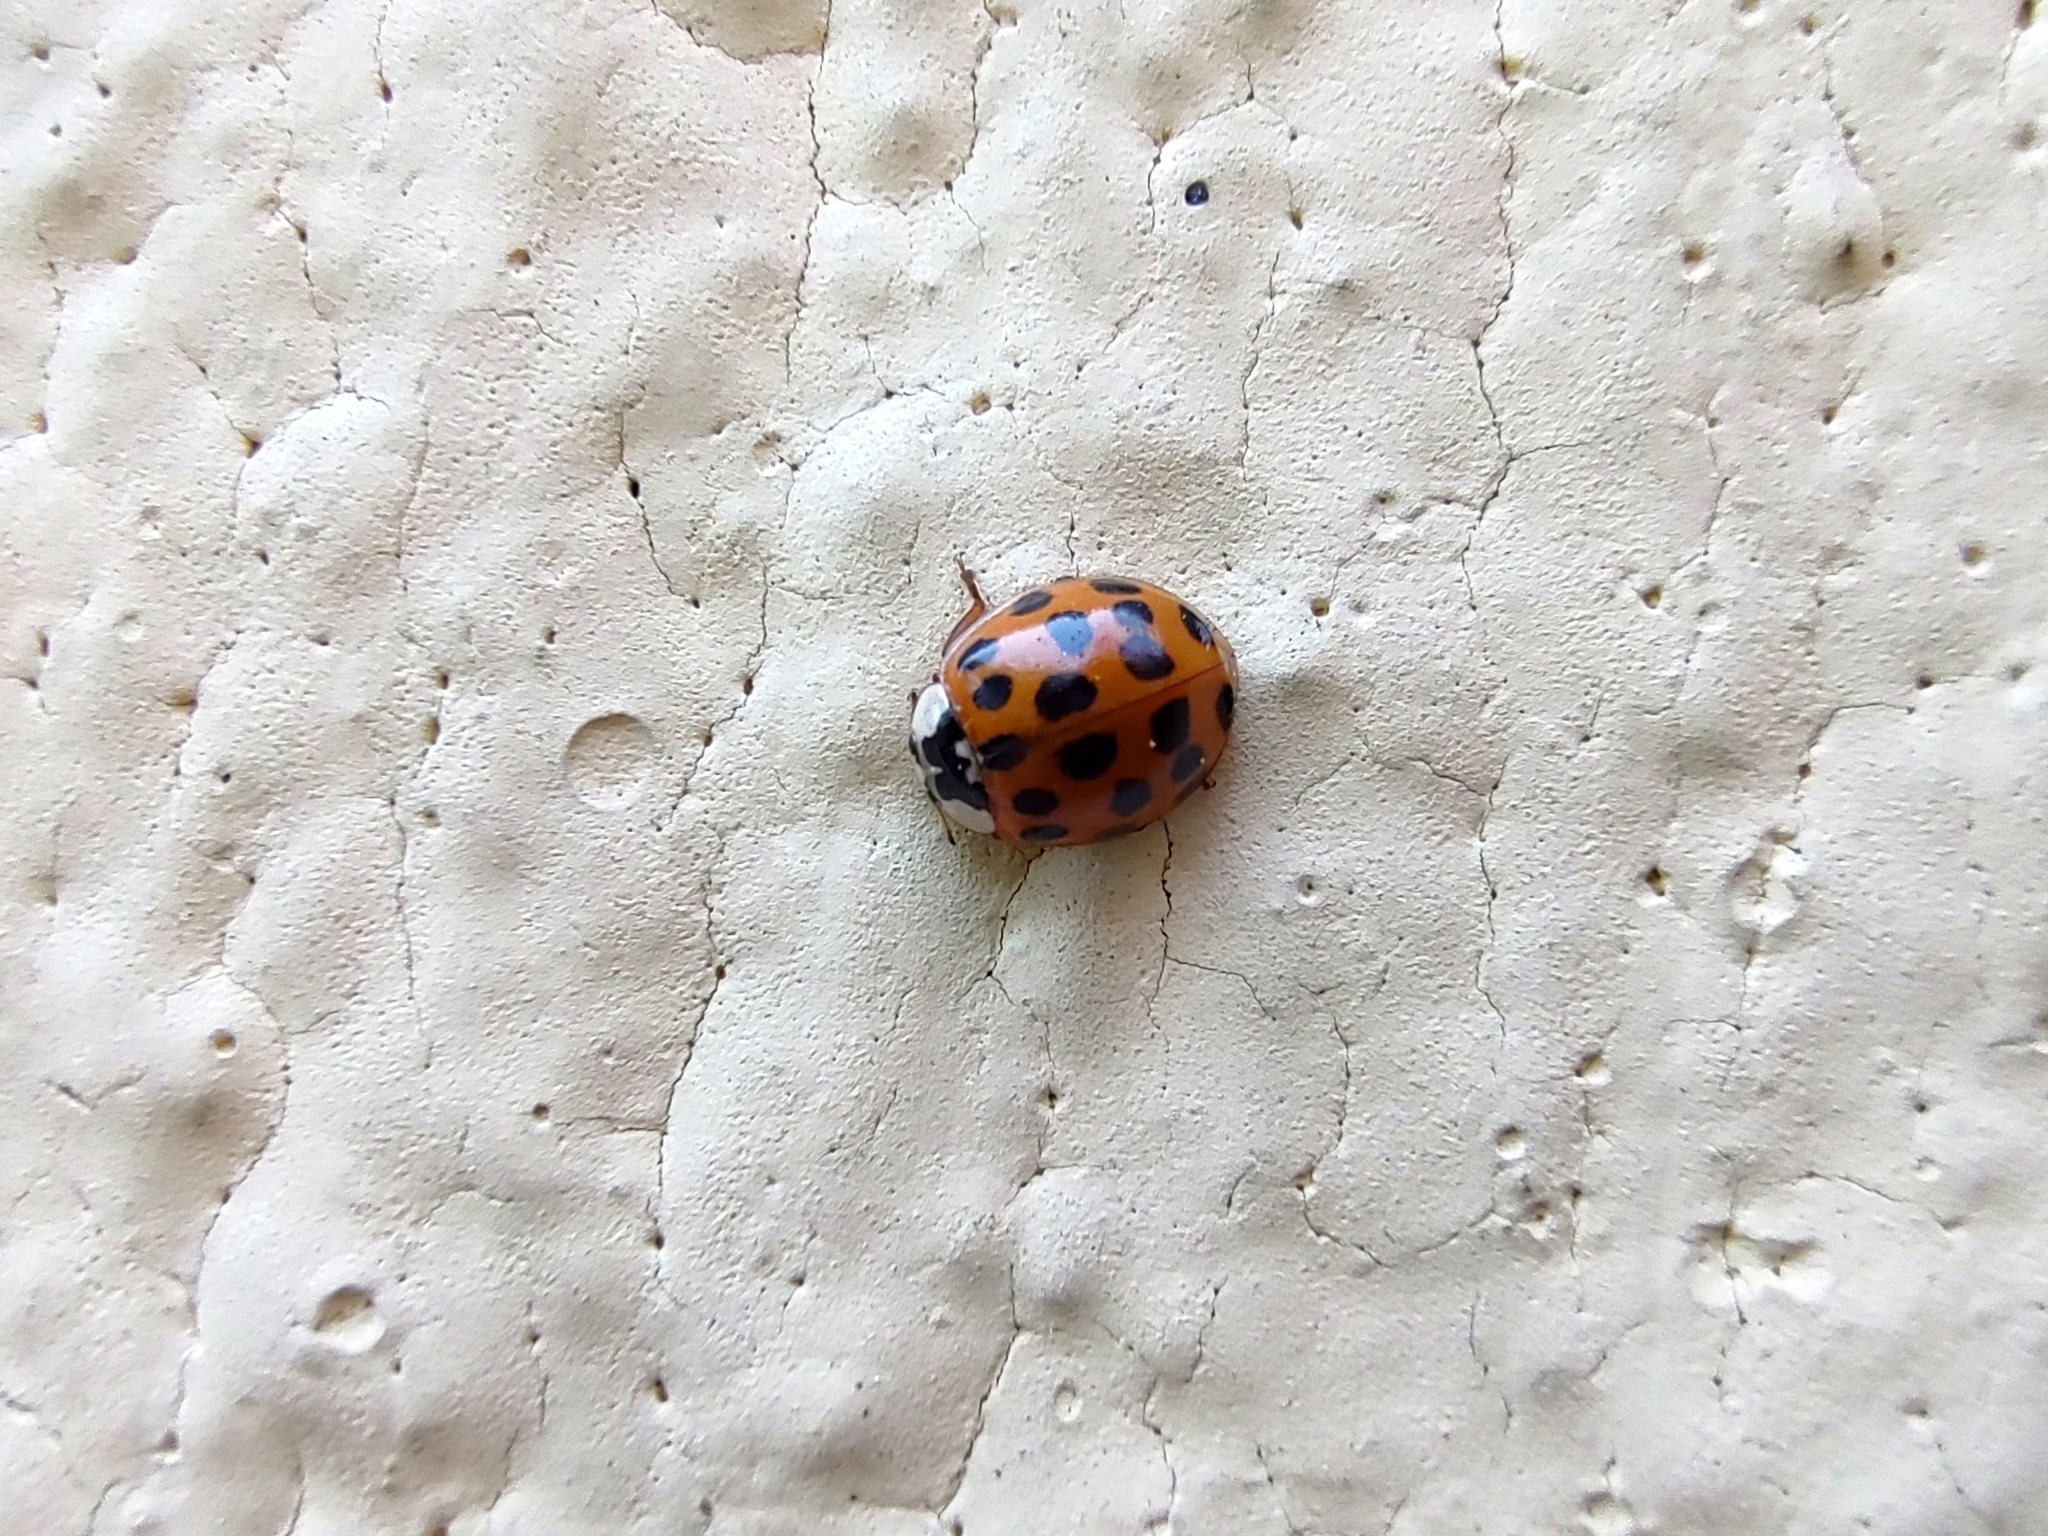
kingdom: Animalia
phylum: Arthropoda
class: Insecta
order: Coleoptera
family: Coccinellidae
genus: Harmonia
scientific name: Harmonia axyridis
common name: Harlequin ladybird
